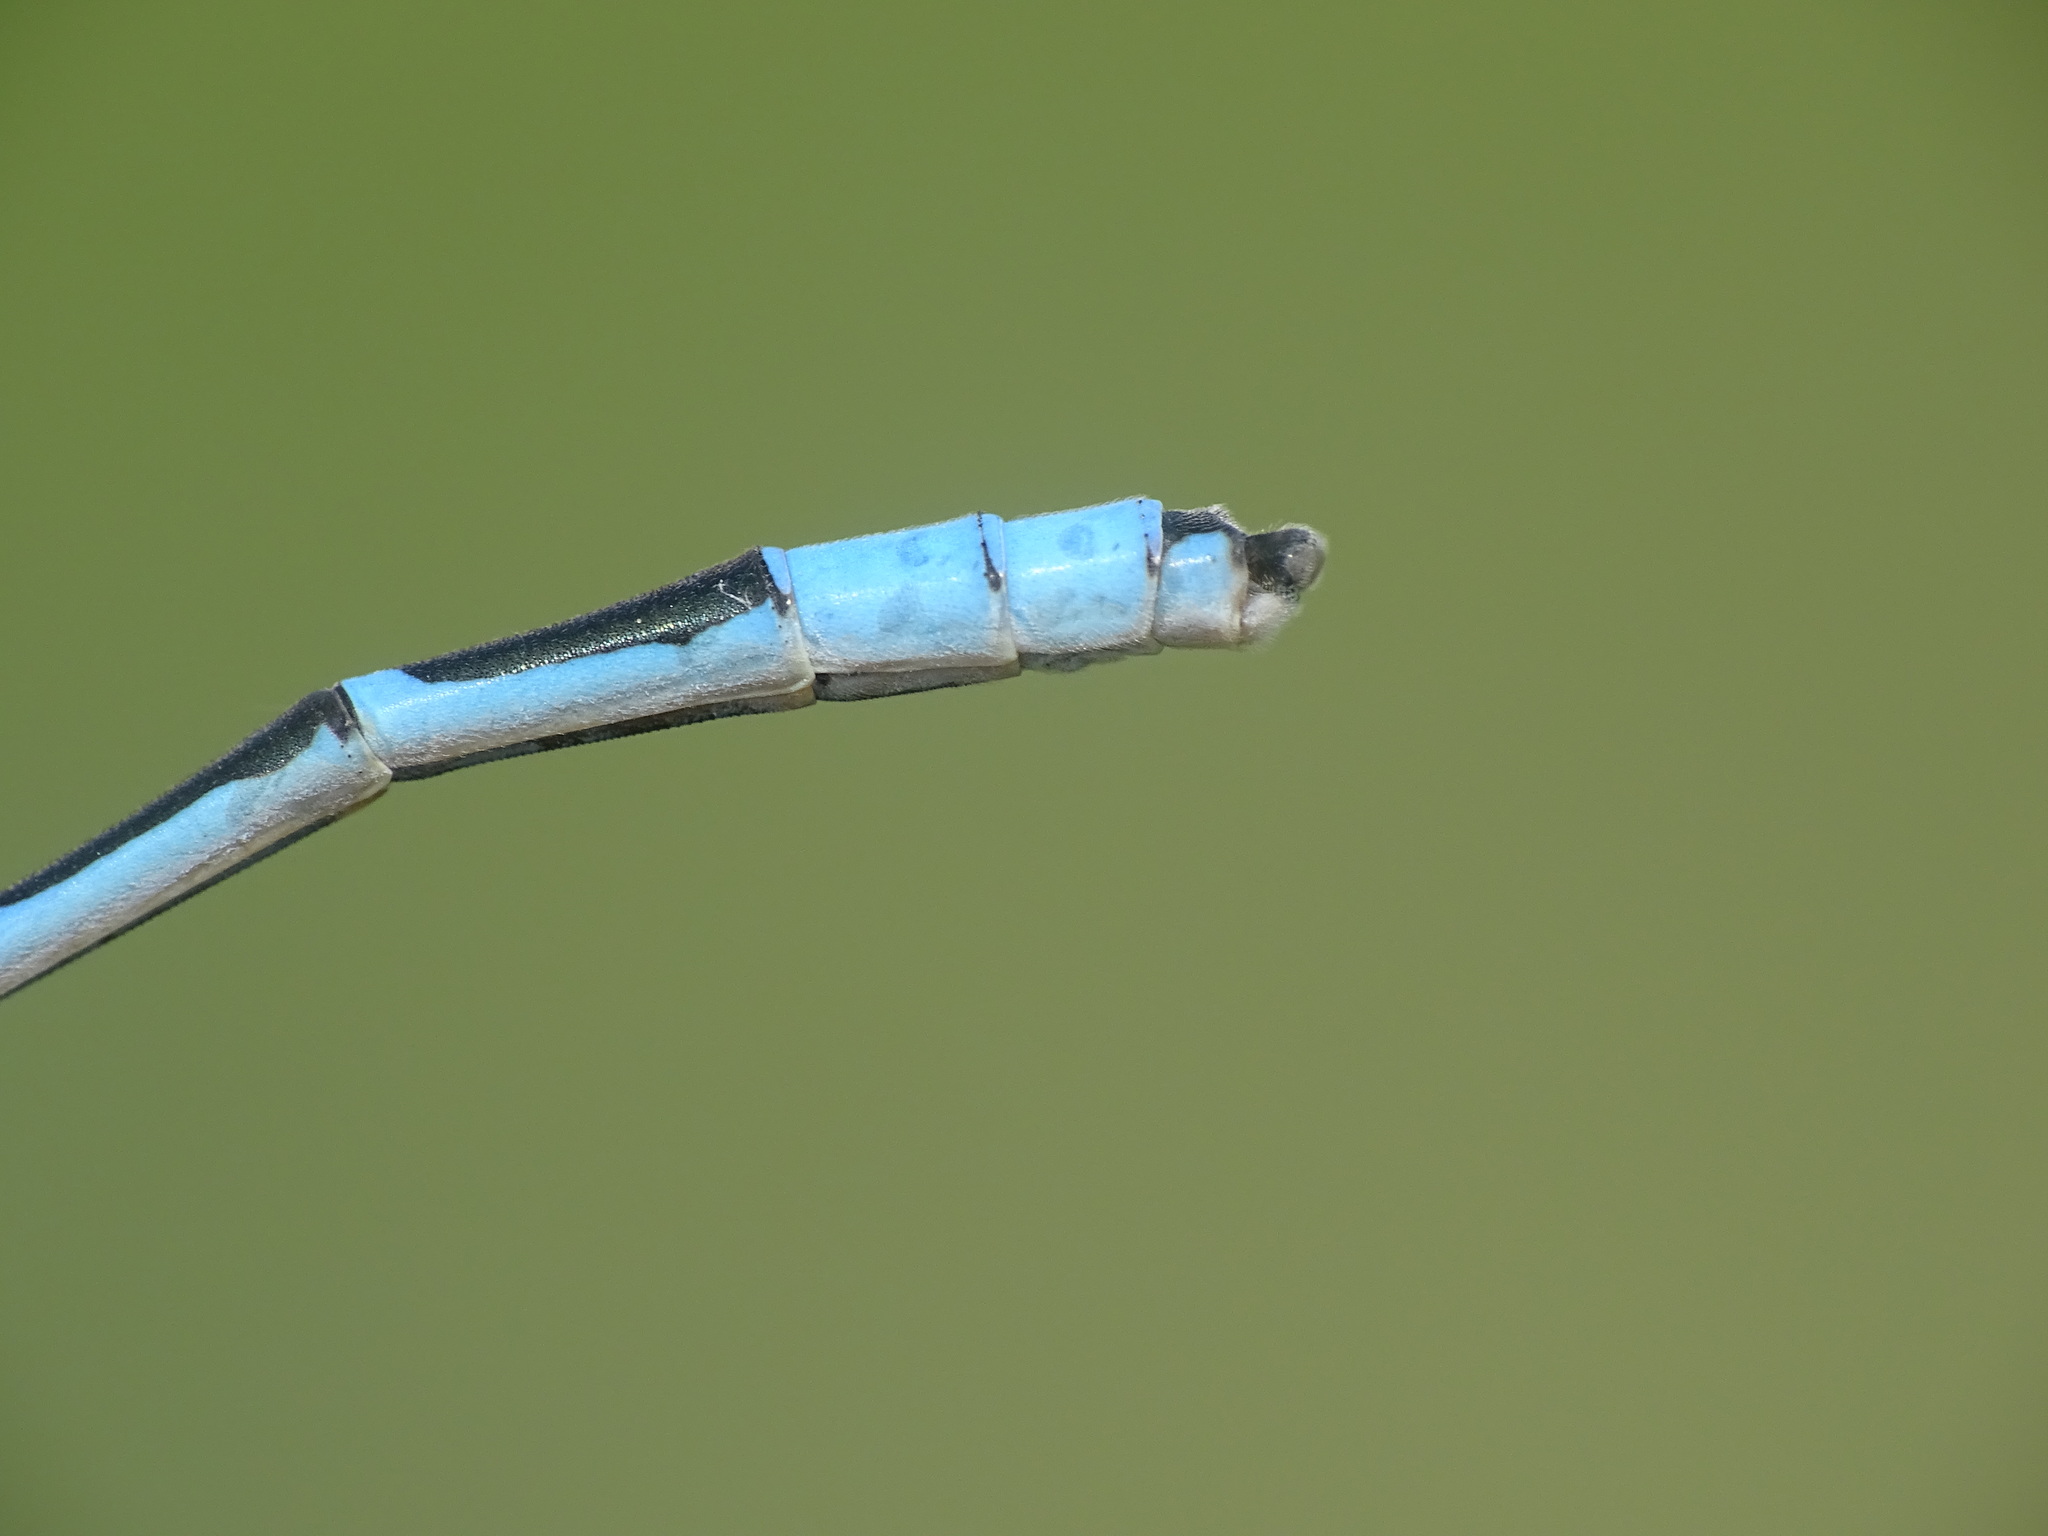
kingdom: Animalia
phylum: Arthropoda
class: Insecta
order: Odonata
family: Coenagrionidae
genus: Enallagma
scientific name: Enallagma civile
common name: Damselfly
